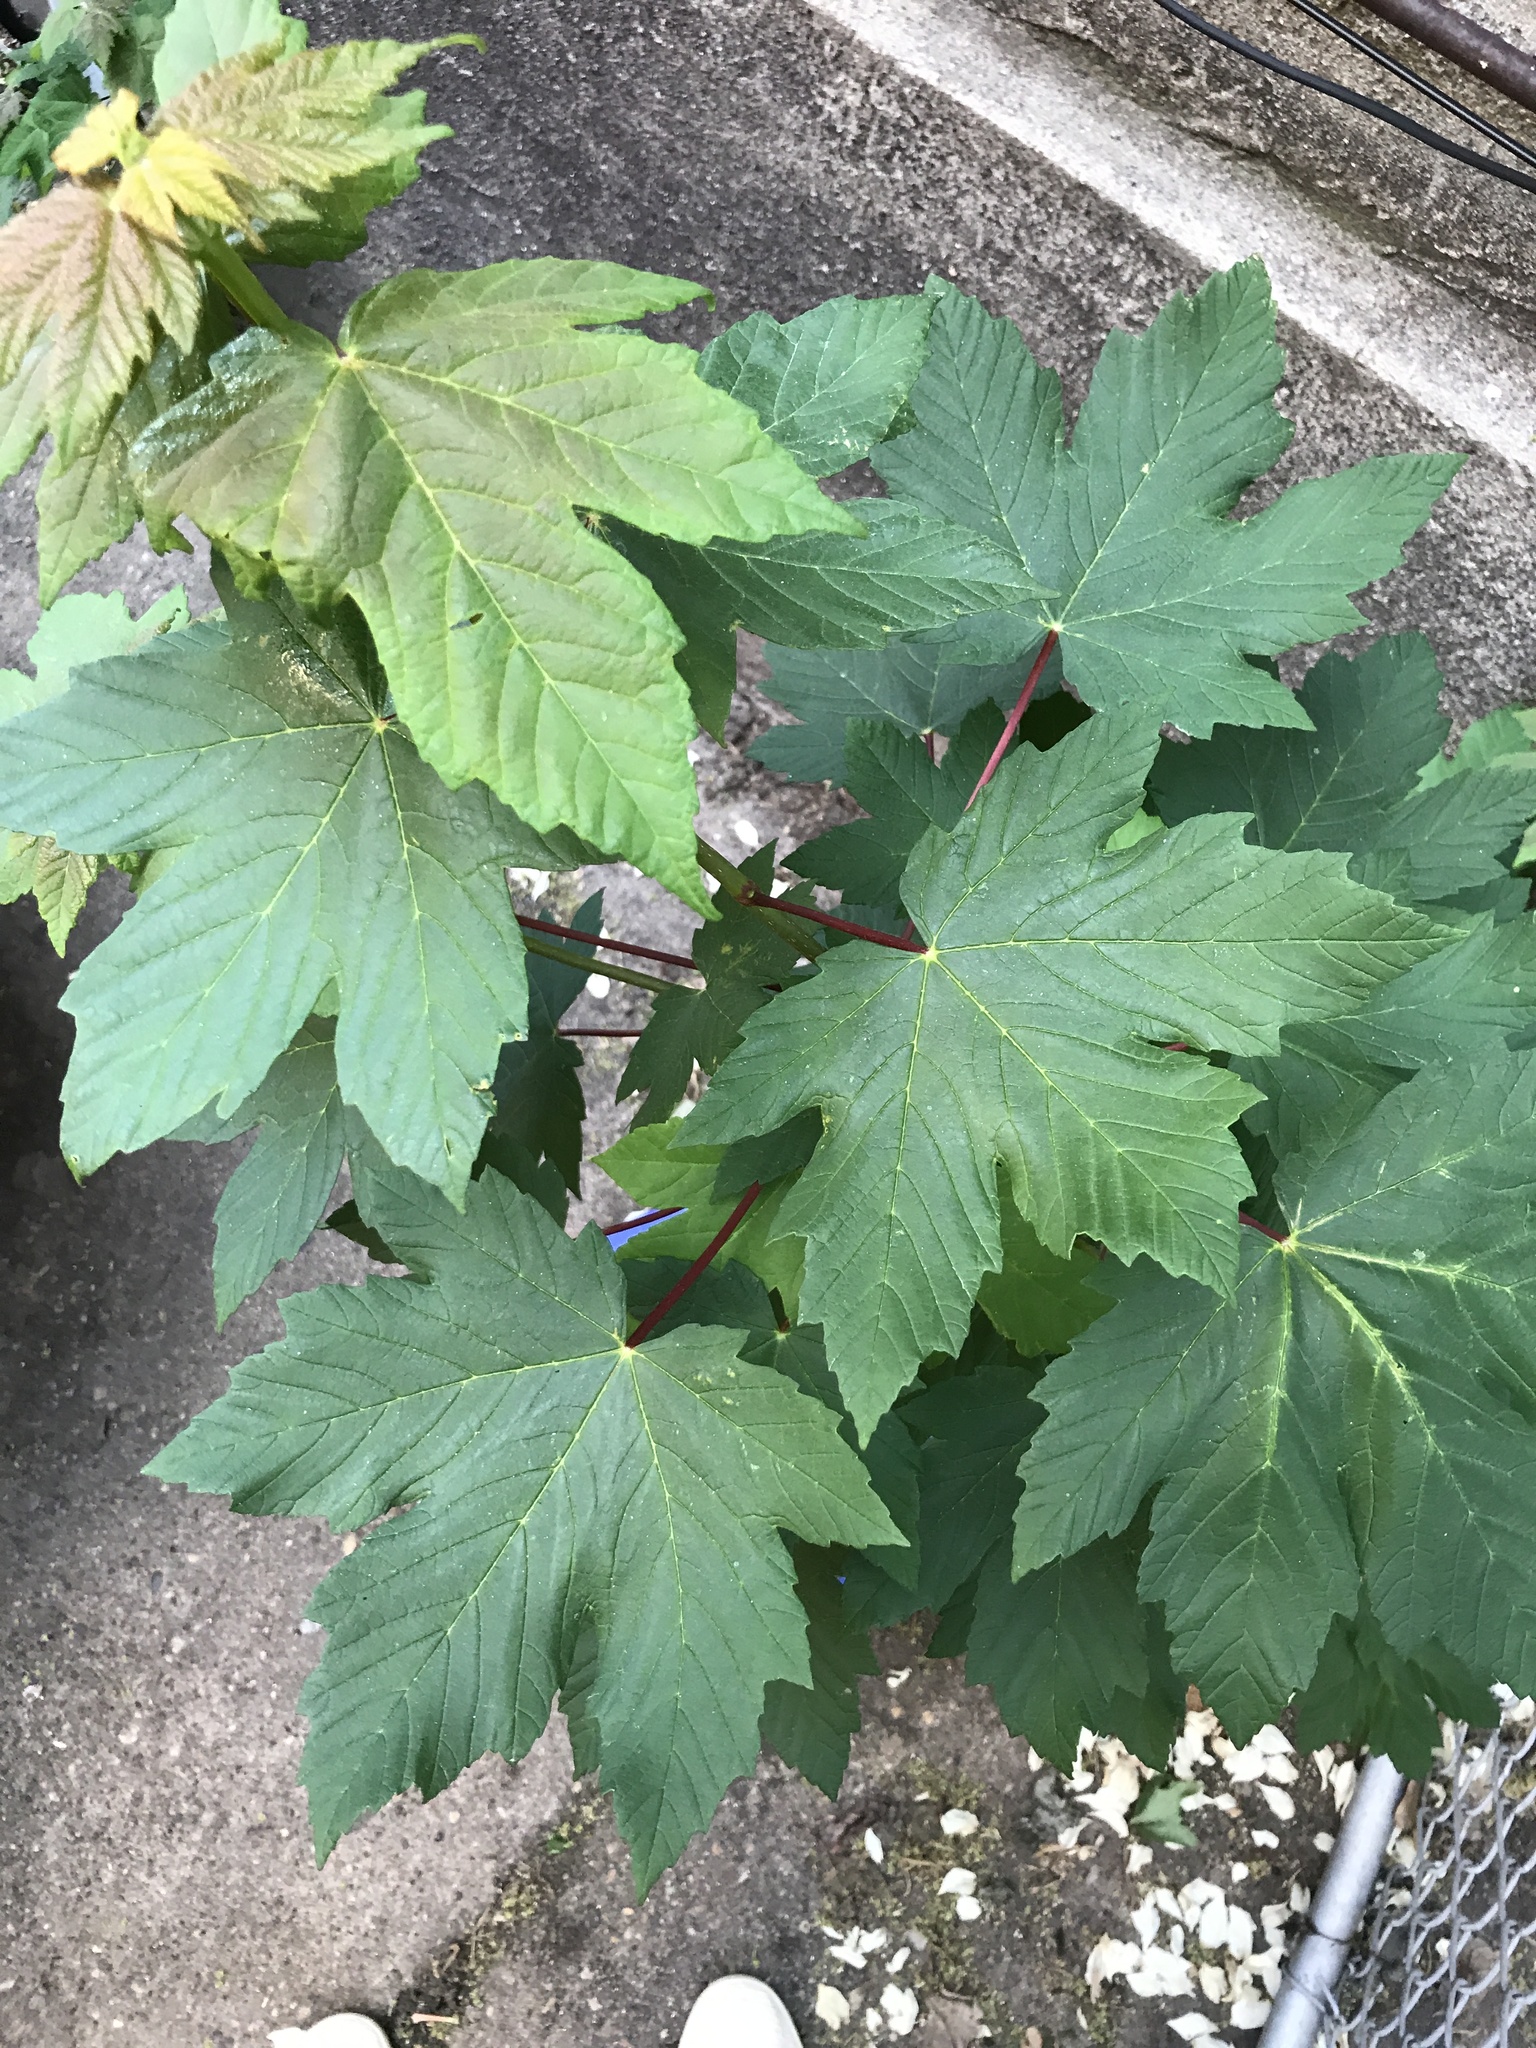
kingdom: Plantae
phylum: Tracheophyta
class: Magnoliopsida
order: Sapindales
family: Sapindaceae
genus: Acer
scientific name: Acer pseudoplatanus
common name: Sycamore
